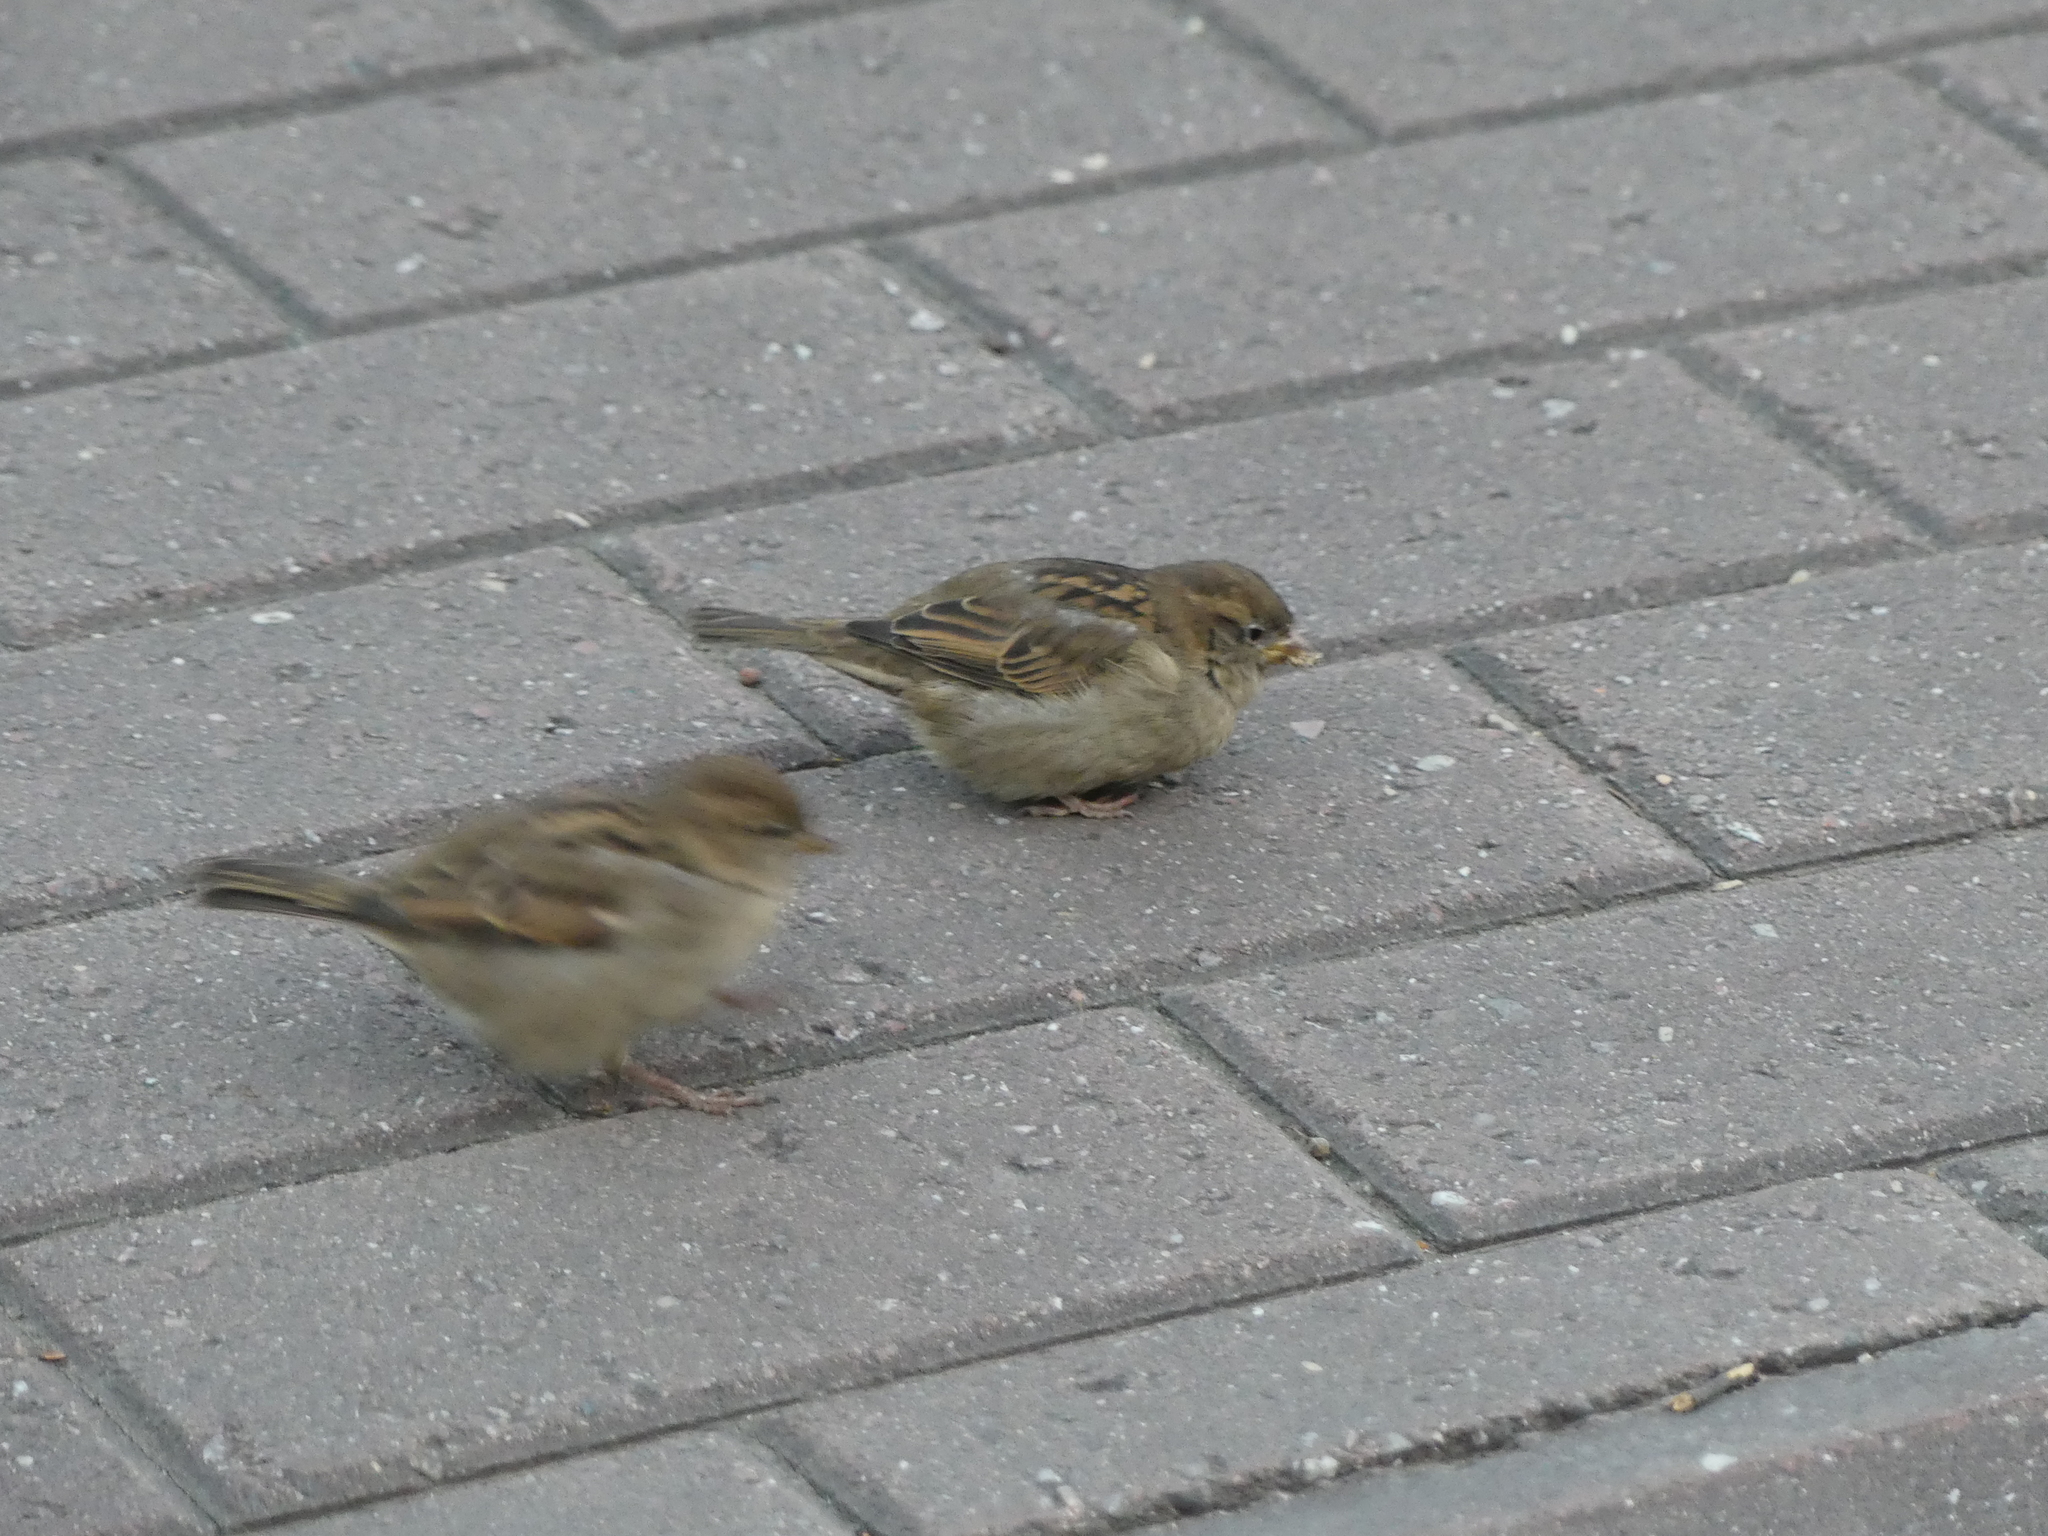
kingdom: Animalia
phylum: Chordata
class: Aves
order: Passeriformes
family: Passeridae
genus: Passer
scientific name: Passer domesticus
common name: House sparrow
